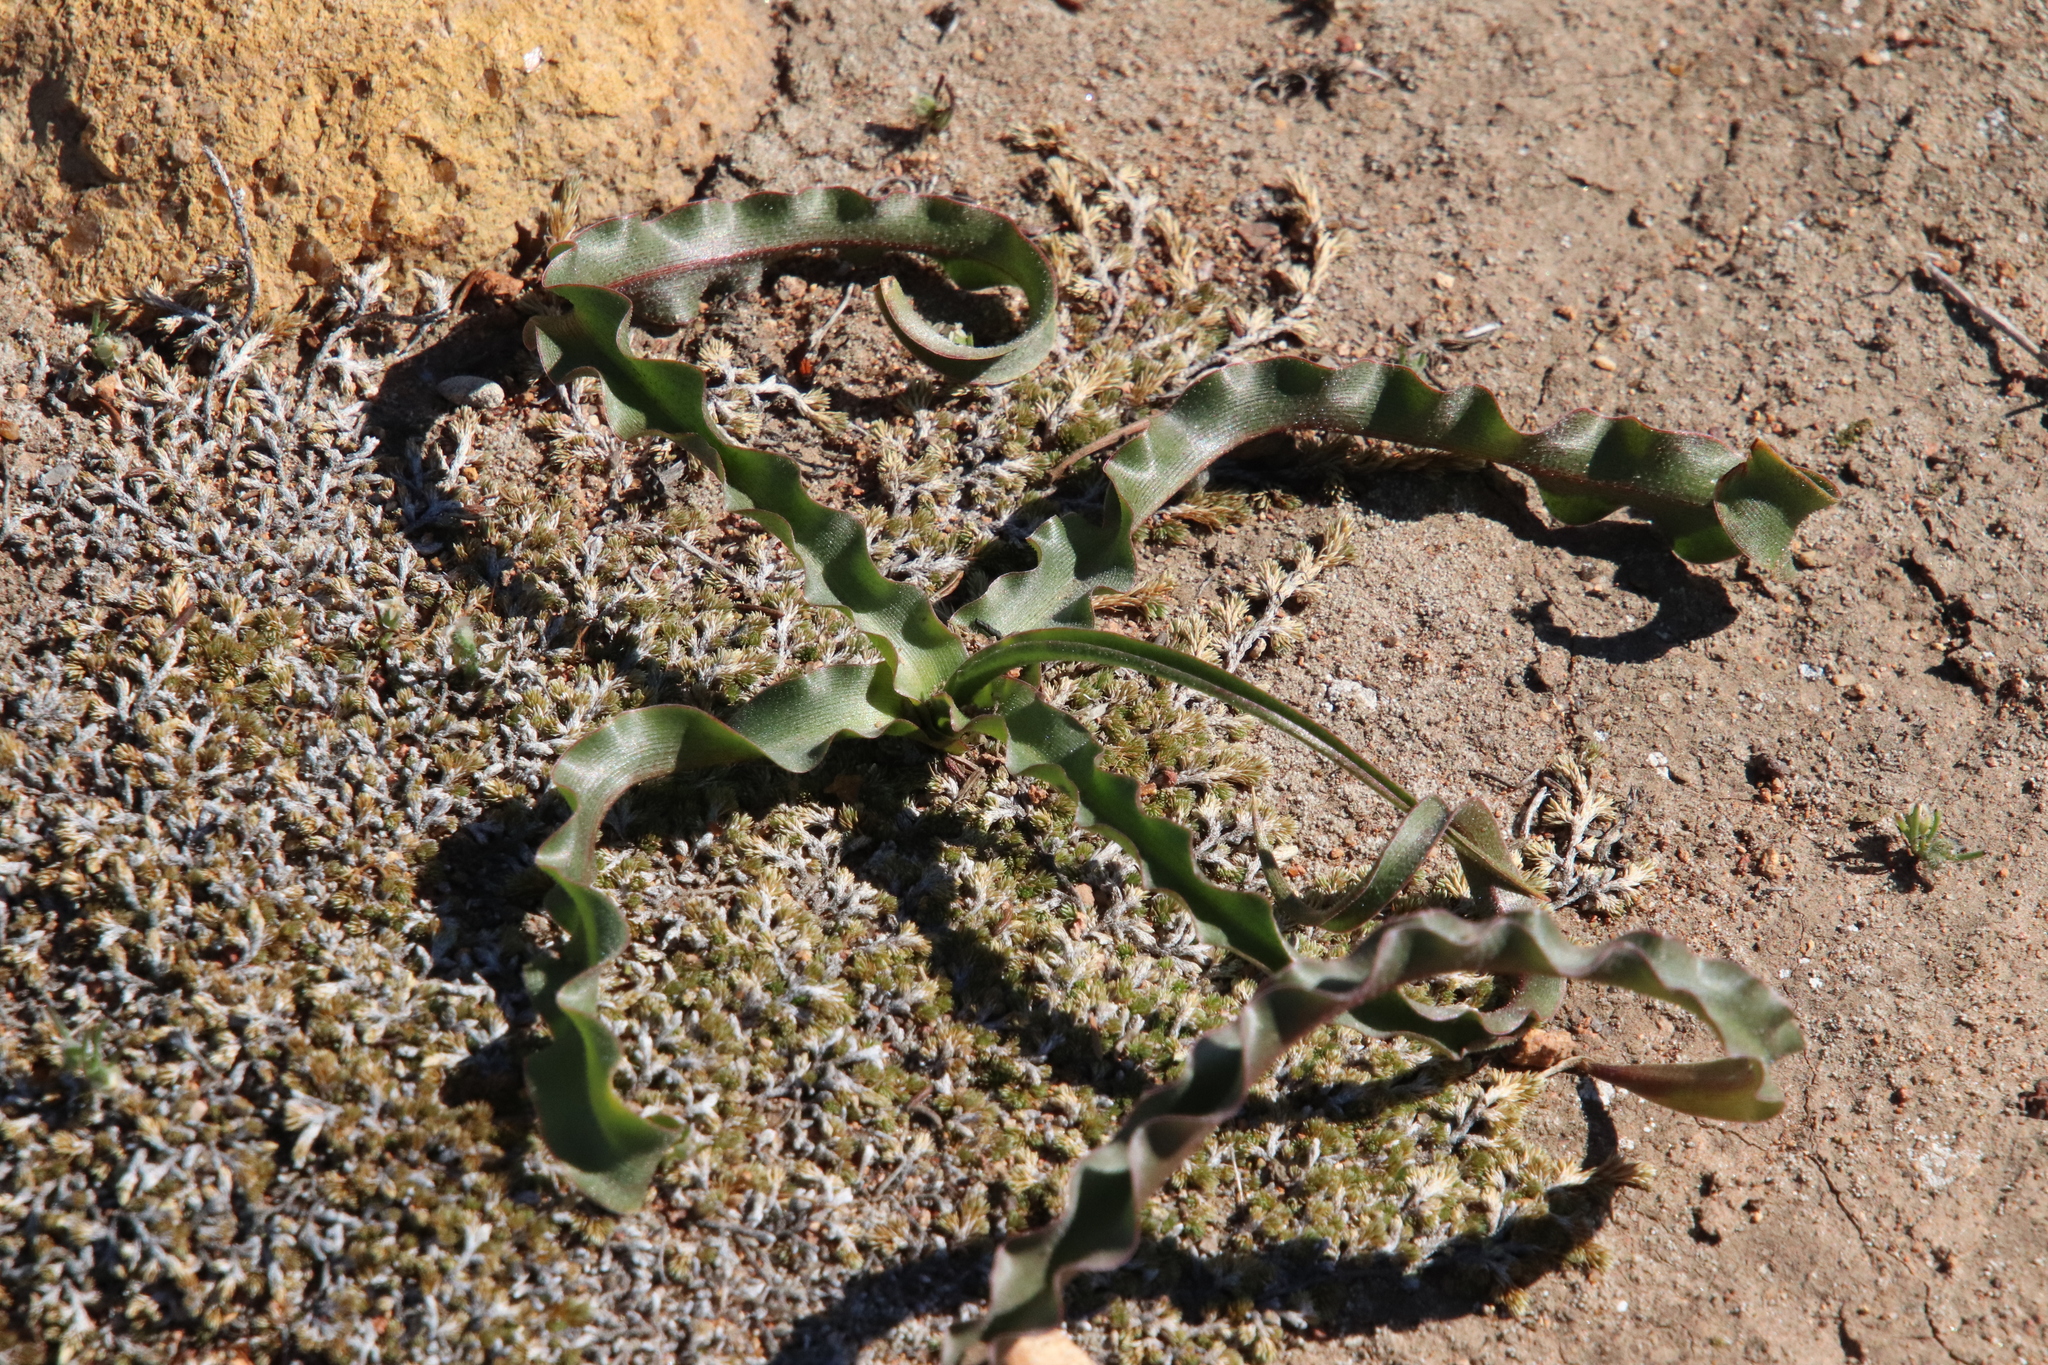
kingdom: Plantae
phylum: Tracheophyta
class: Liliopsida
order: Asparagales
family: Asparagaceae
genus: Hooveria
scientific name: Hooveria parviflora
